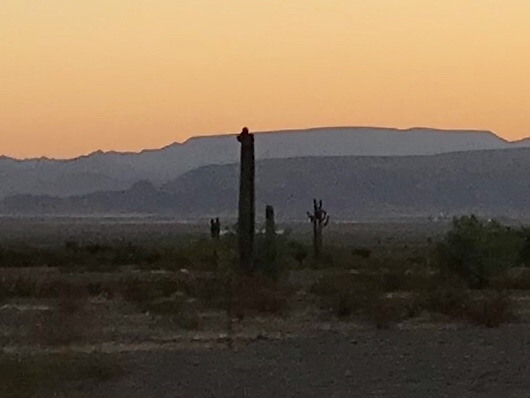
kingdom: Plantae
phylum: Tracheophyta
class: Magnoliopsida
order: Caryophyllales
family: Cactaceae
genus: Carnegiea
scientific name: Carnegiea gigantea
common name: Saguaro
